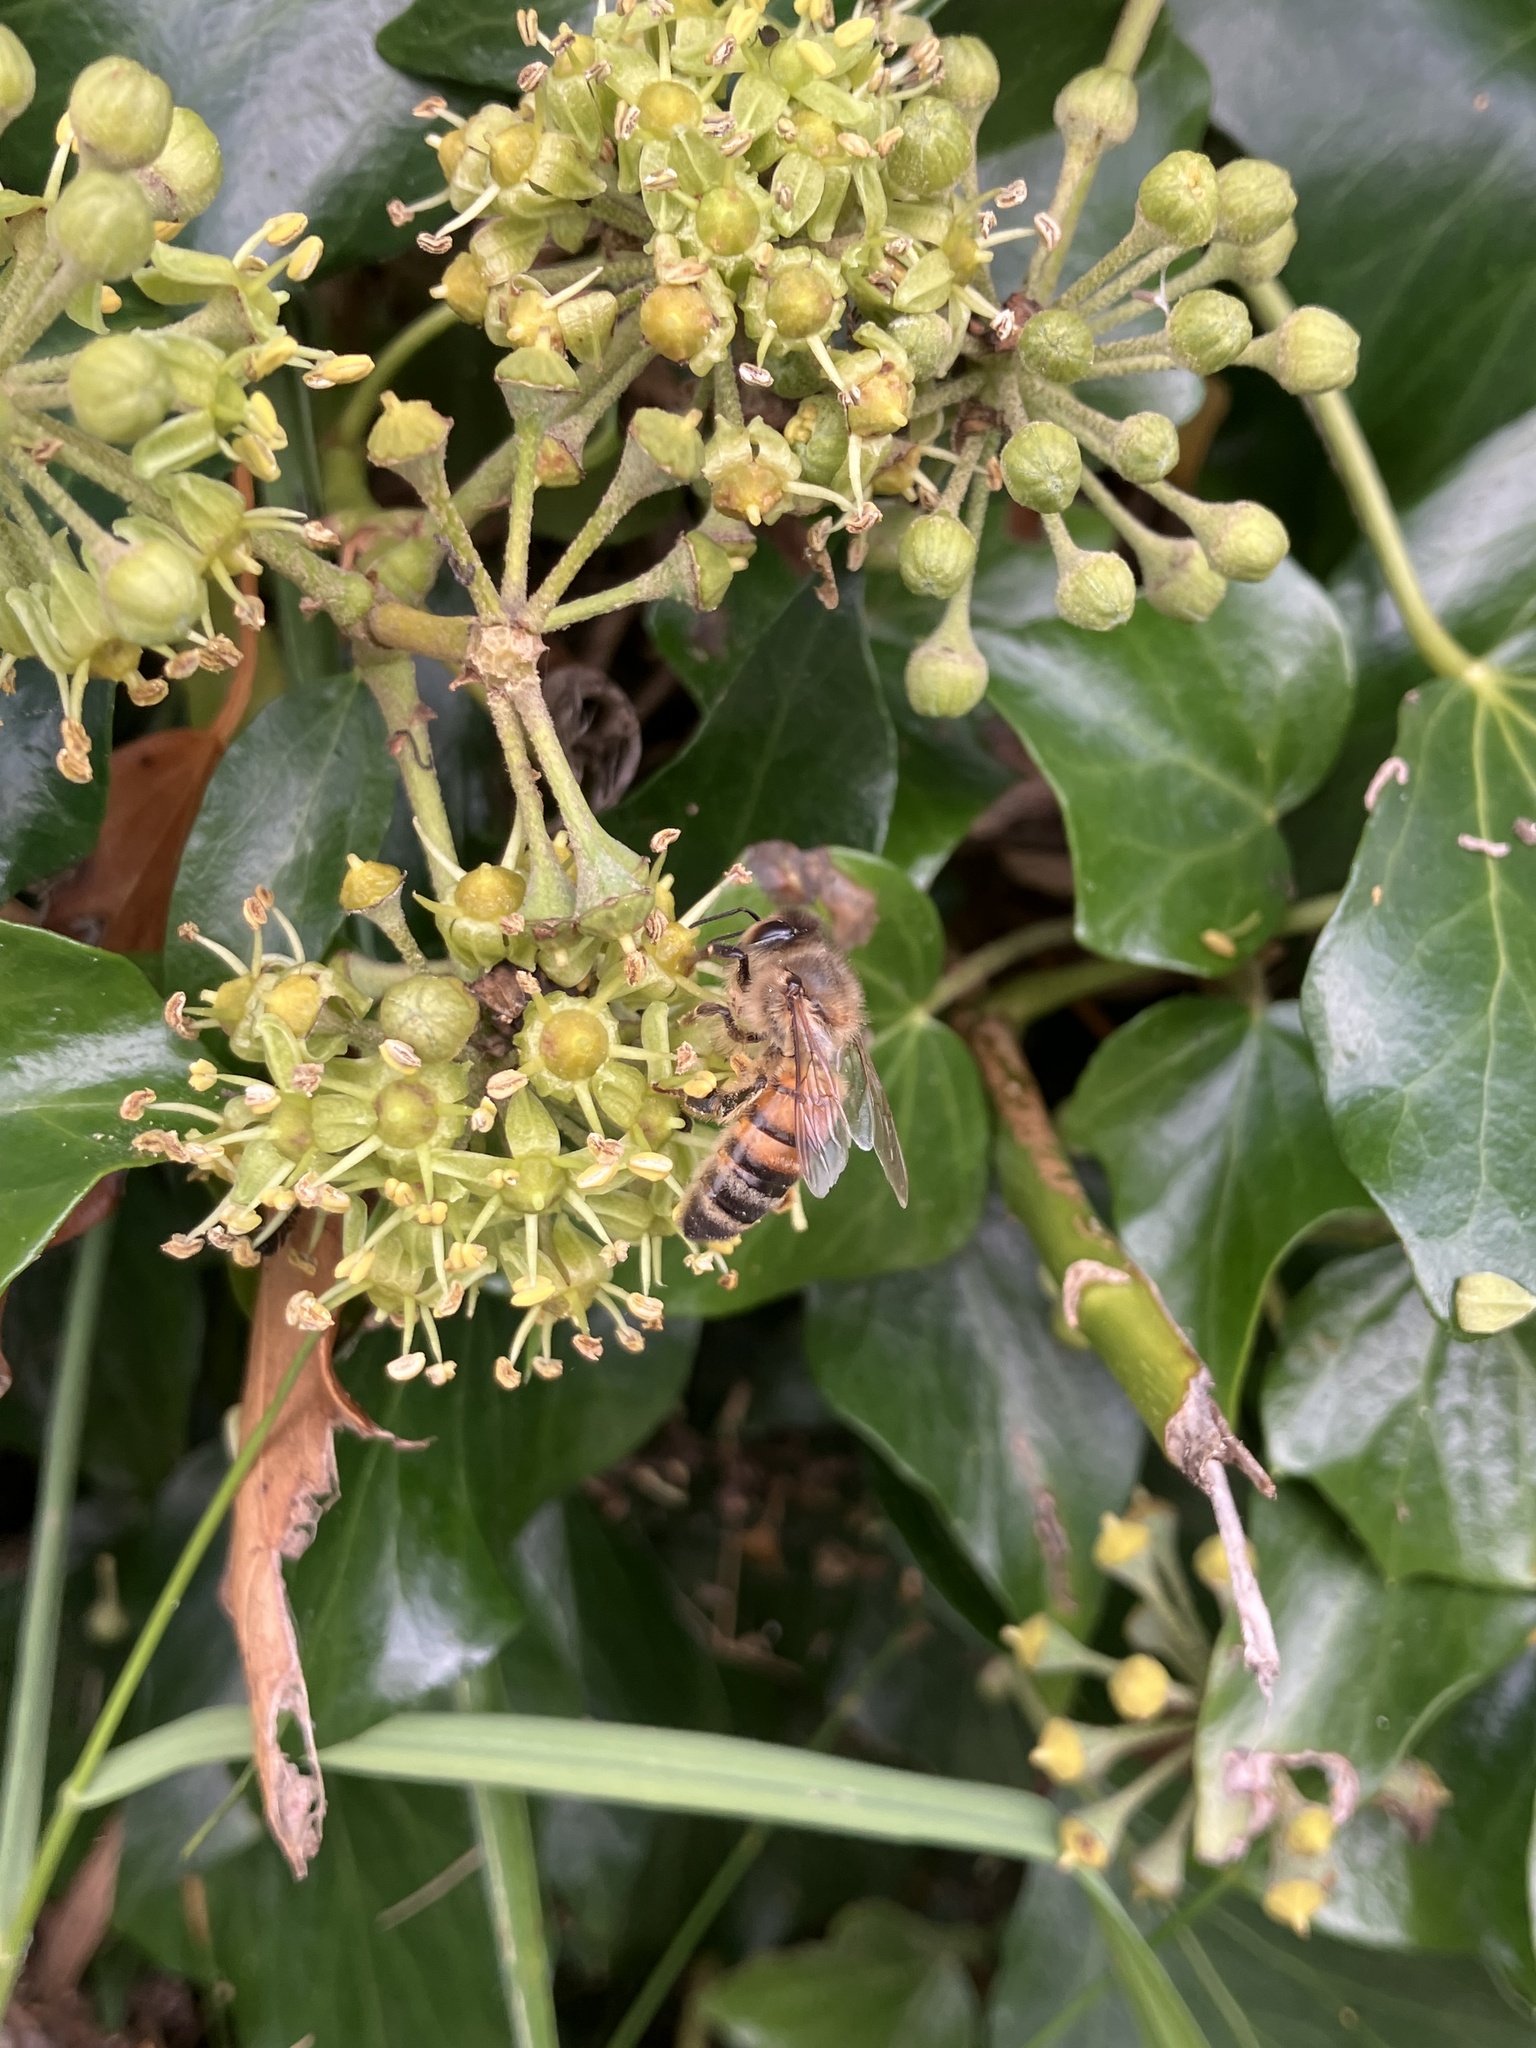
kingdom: Animalia
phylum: Arthropoda
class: Insecta
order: Hymenoptera
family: Apidae
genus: Apis
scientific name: Apis mellifera
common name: Honey bee
